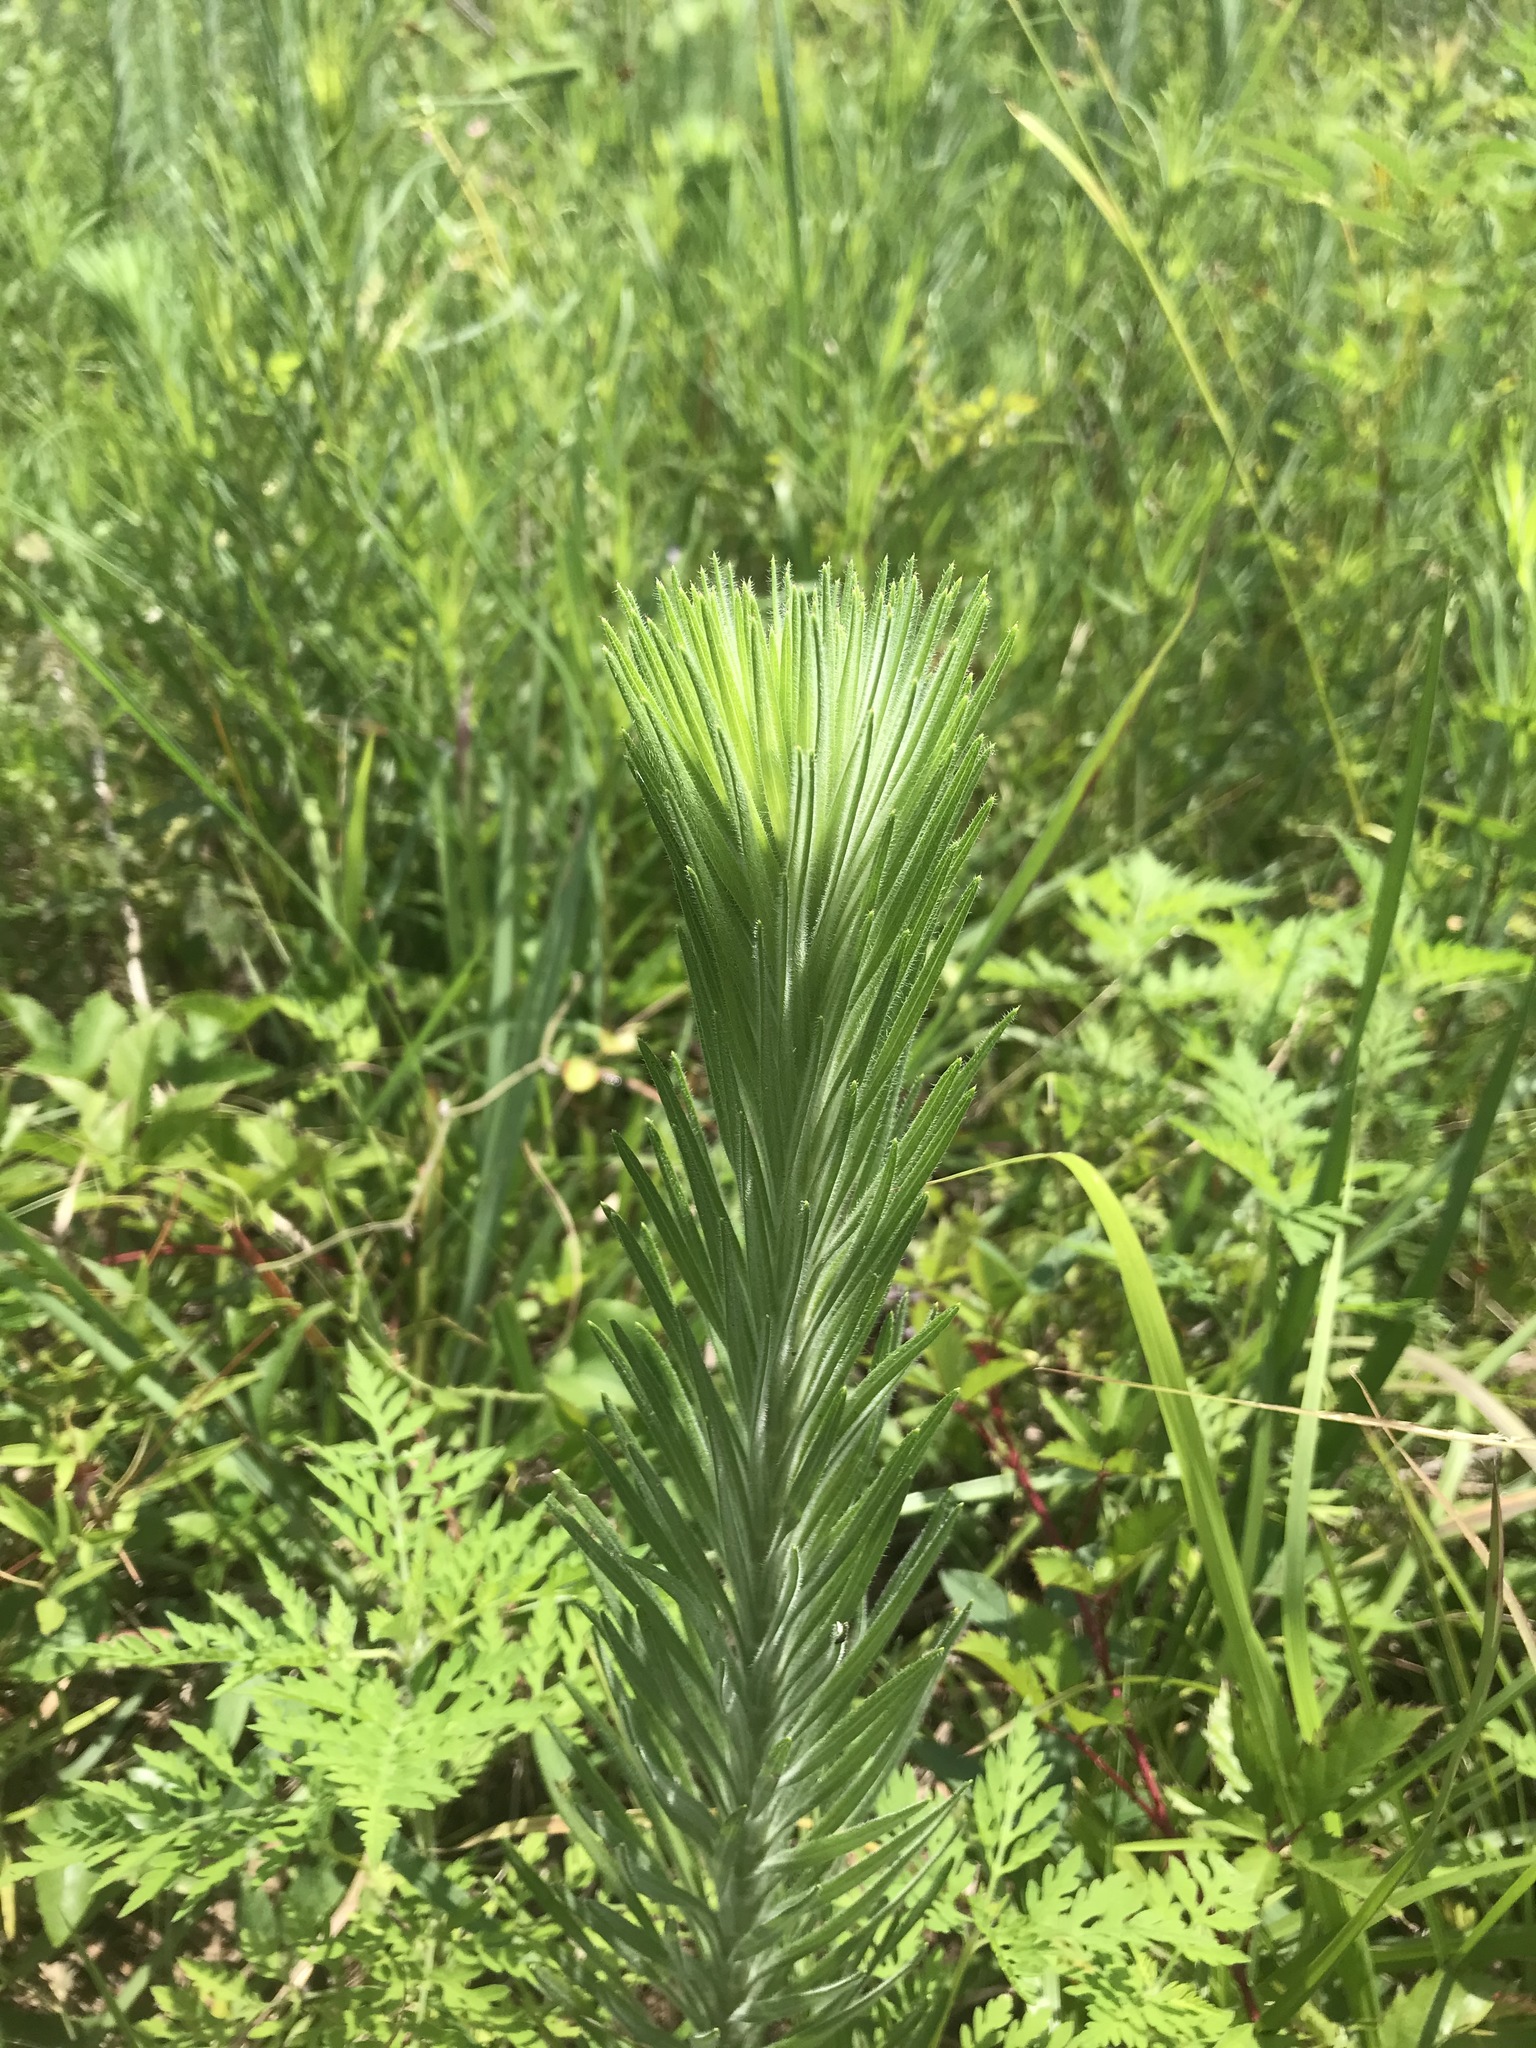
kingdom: Plantae
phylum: Tracheophyta
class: Magnoliopsida
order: Asterales
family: Asteraceae
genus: Liatris
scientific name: Liatris pycnostachya
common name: Cattail gayfeather
